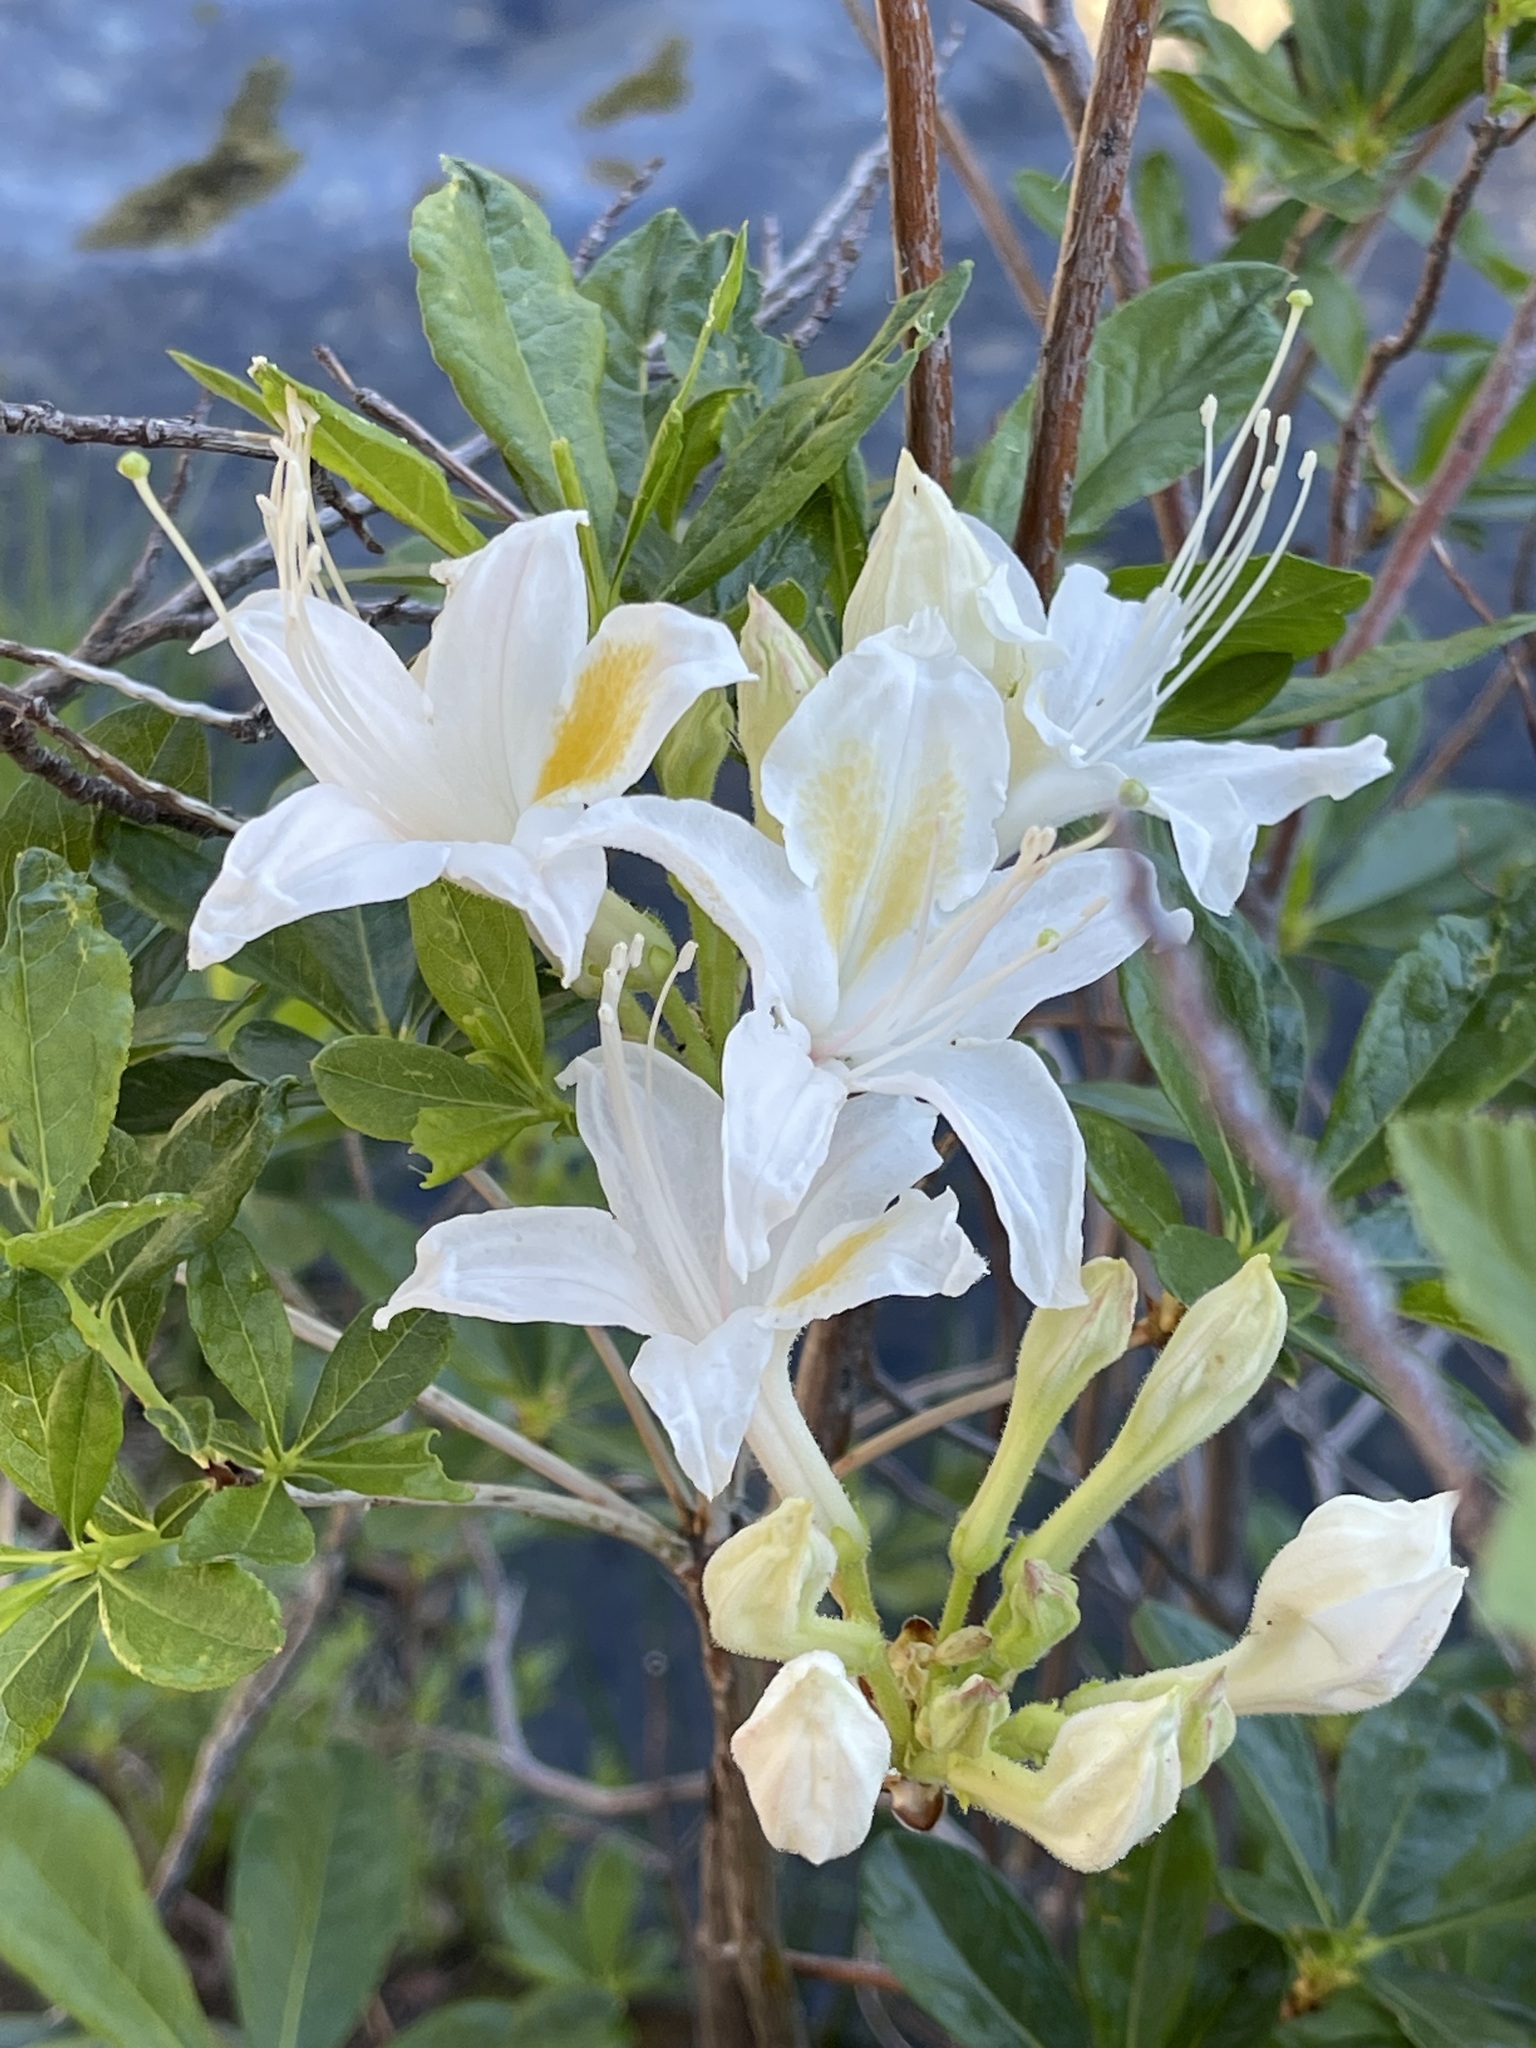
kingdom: Plantae
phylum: Tracheophyta
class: Magnoliopsida
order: Ericales
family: Ericaceae
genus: Rhododendron
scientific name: Rhododendron occidentale
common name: Western azalea
